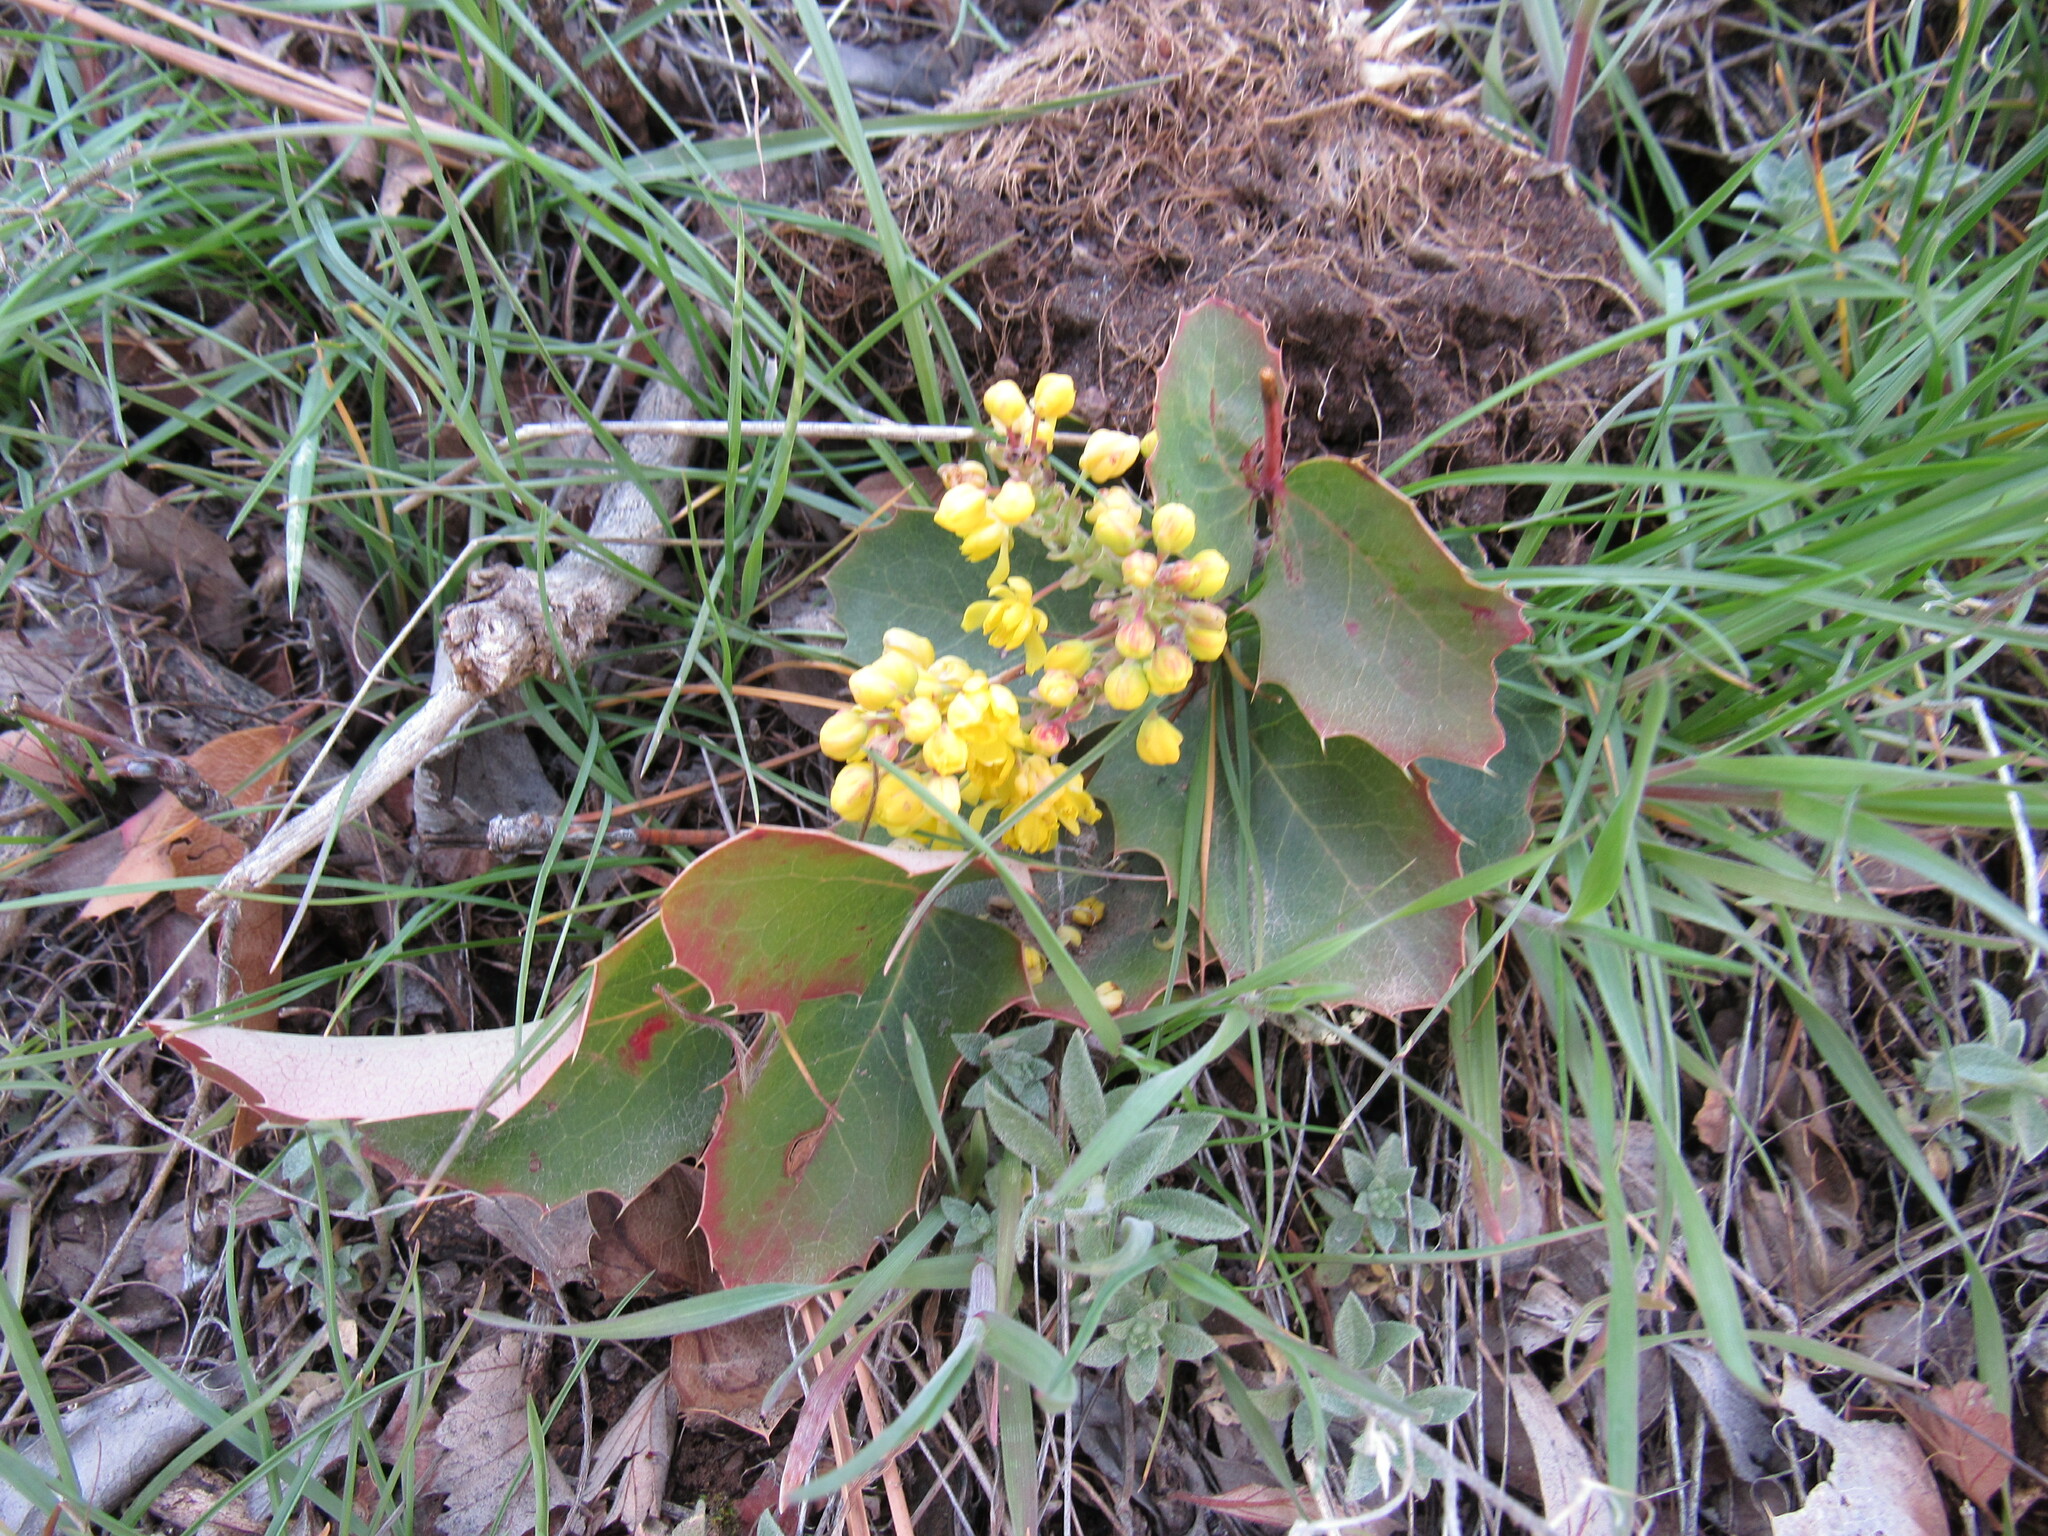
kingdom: Plantae
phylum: Tracheophyta
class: Magnoliopsida
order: Ranunculales
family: Berberidaceae
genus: Mahonia
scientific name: Mahonia repens
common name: Creeping oregon-grape
